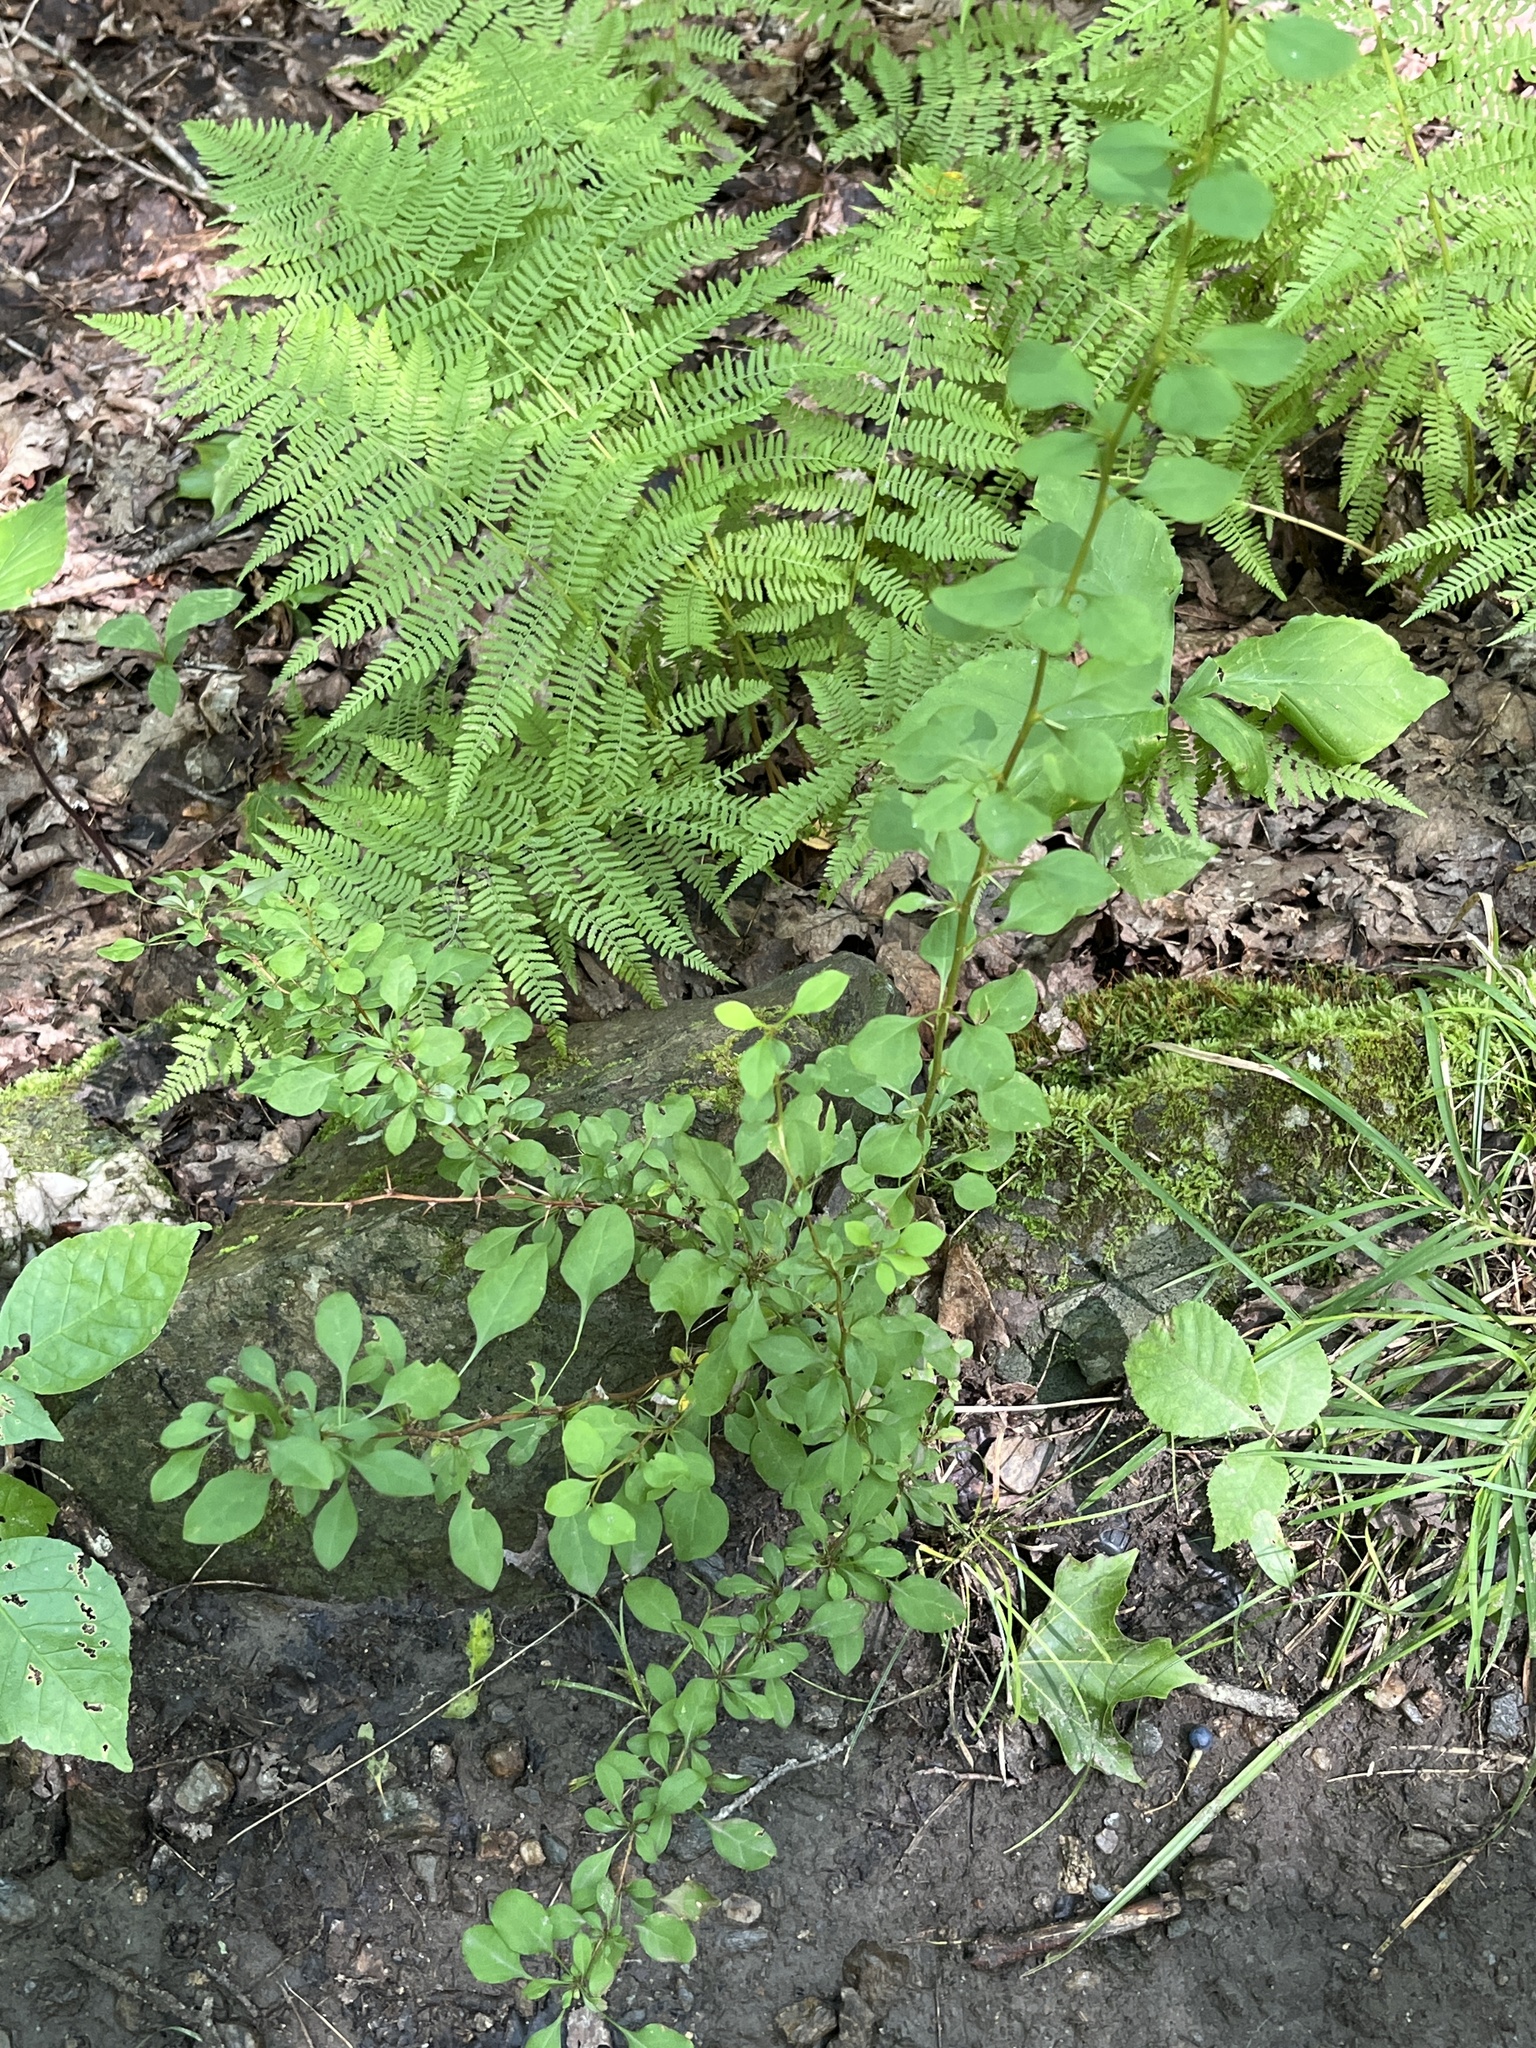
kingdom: Plantae
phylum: Tracheophyta
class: Magnoliopsida
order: Ranunculales
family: Berberidaceae
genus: Berberis
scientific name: Berberis thunbergii
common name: Japanese barberry
